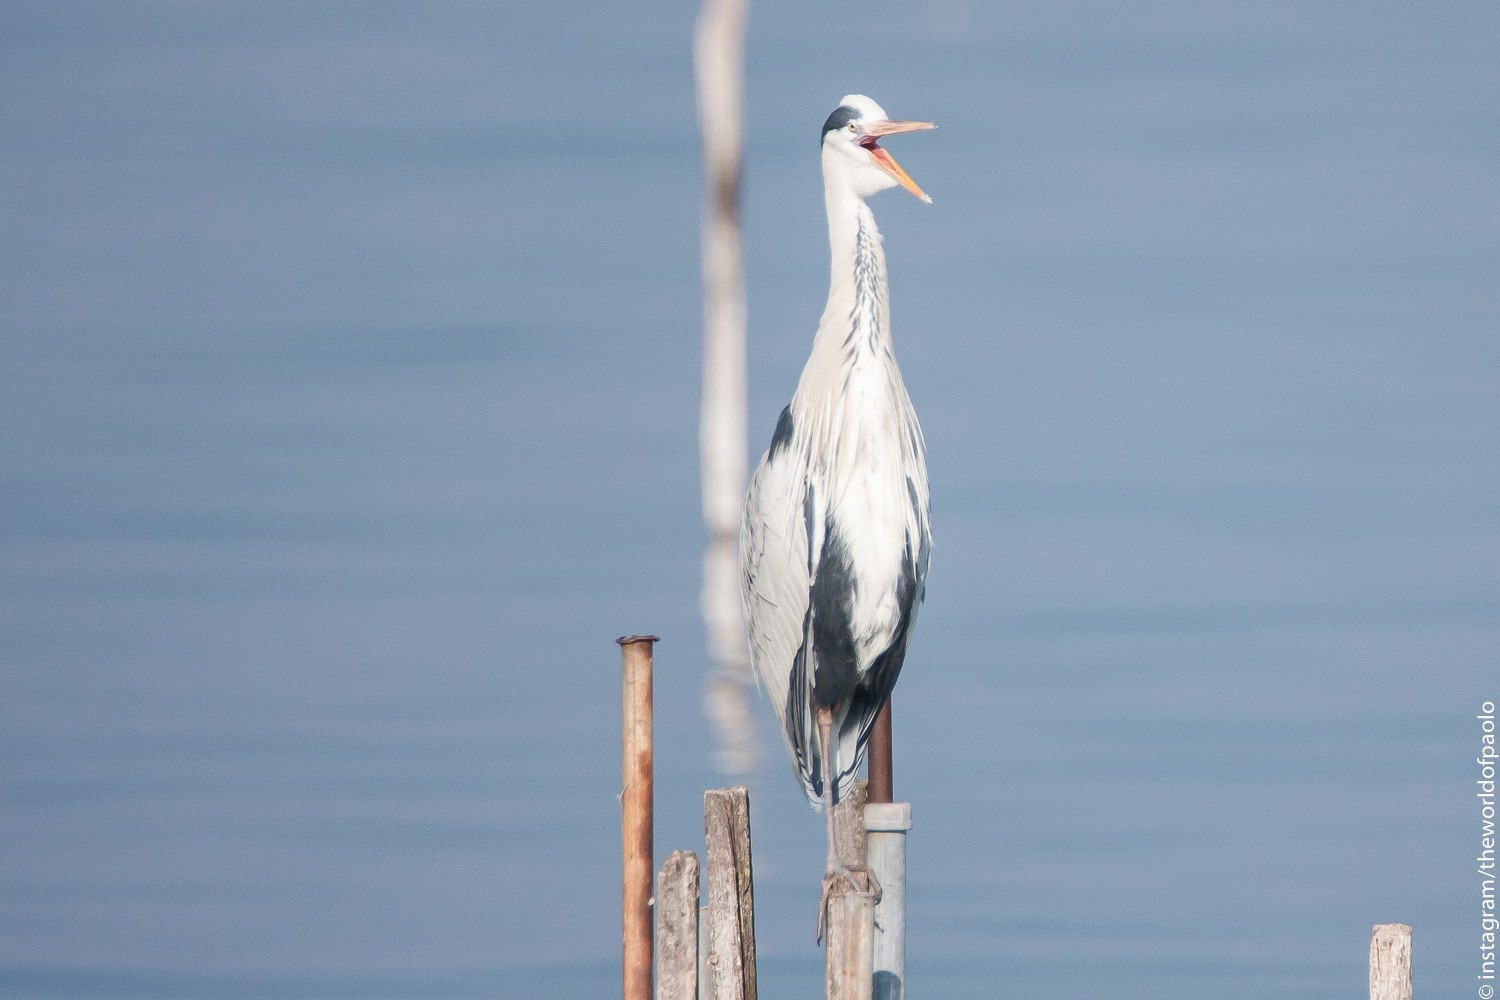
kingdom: Animalia
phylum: Chordata
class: Aves
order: Pelecaniformes
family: Ardeidae
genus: Ardea
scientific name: Ardea cinerea
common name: Grey heron
